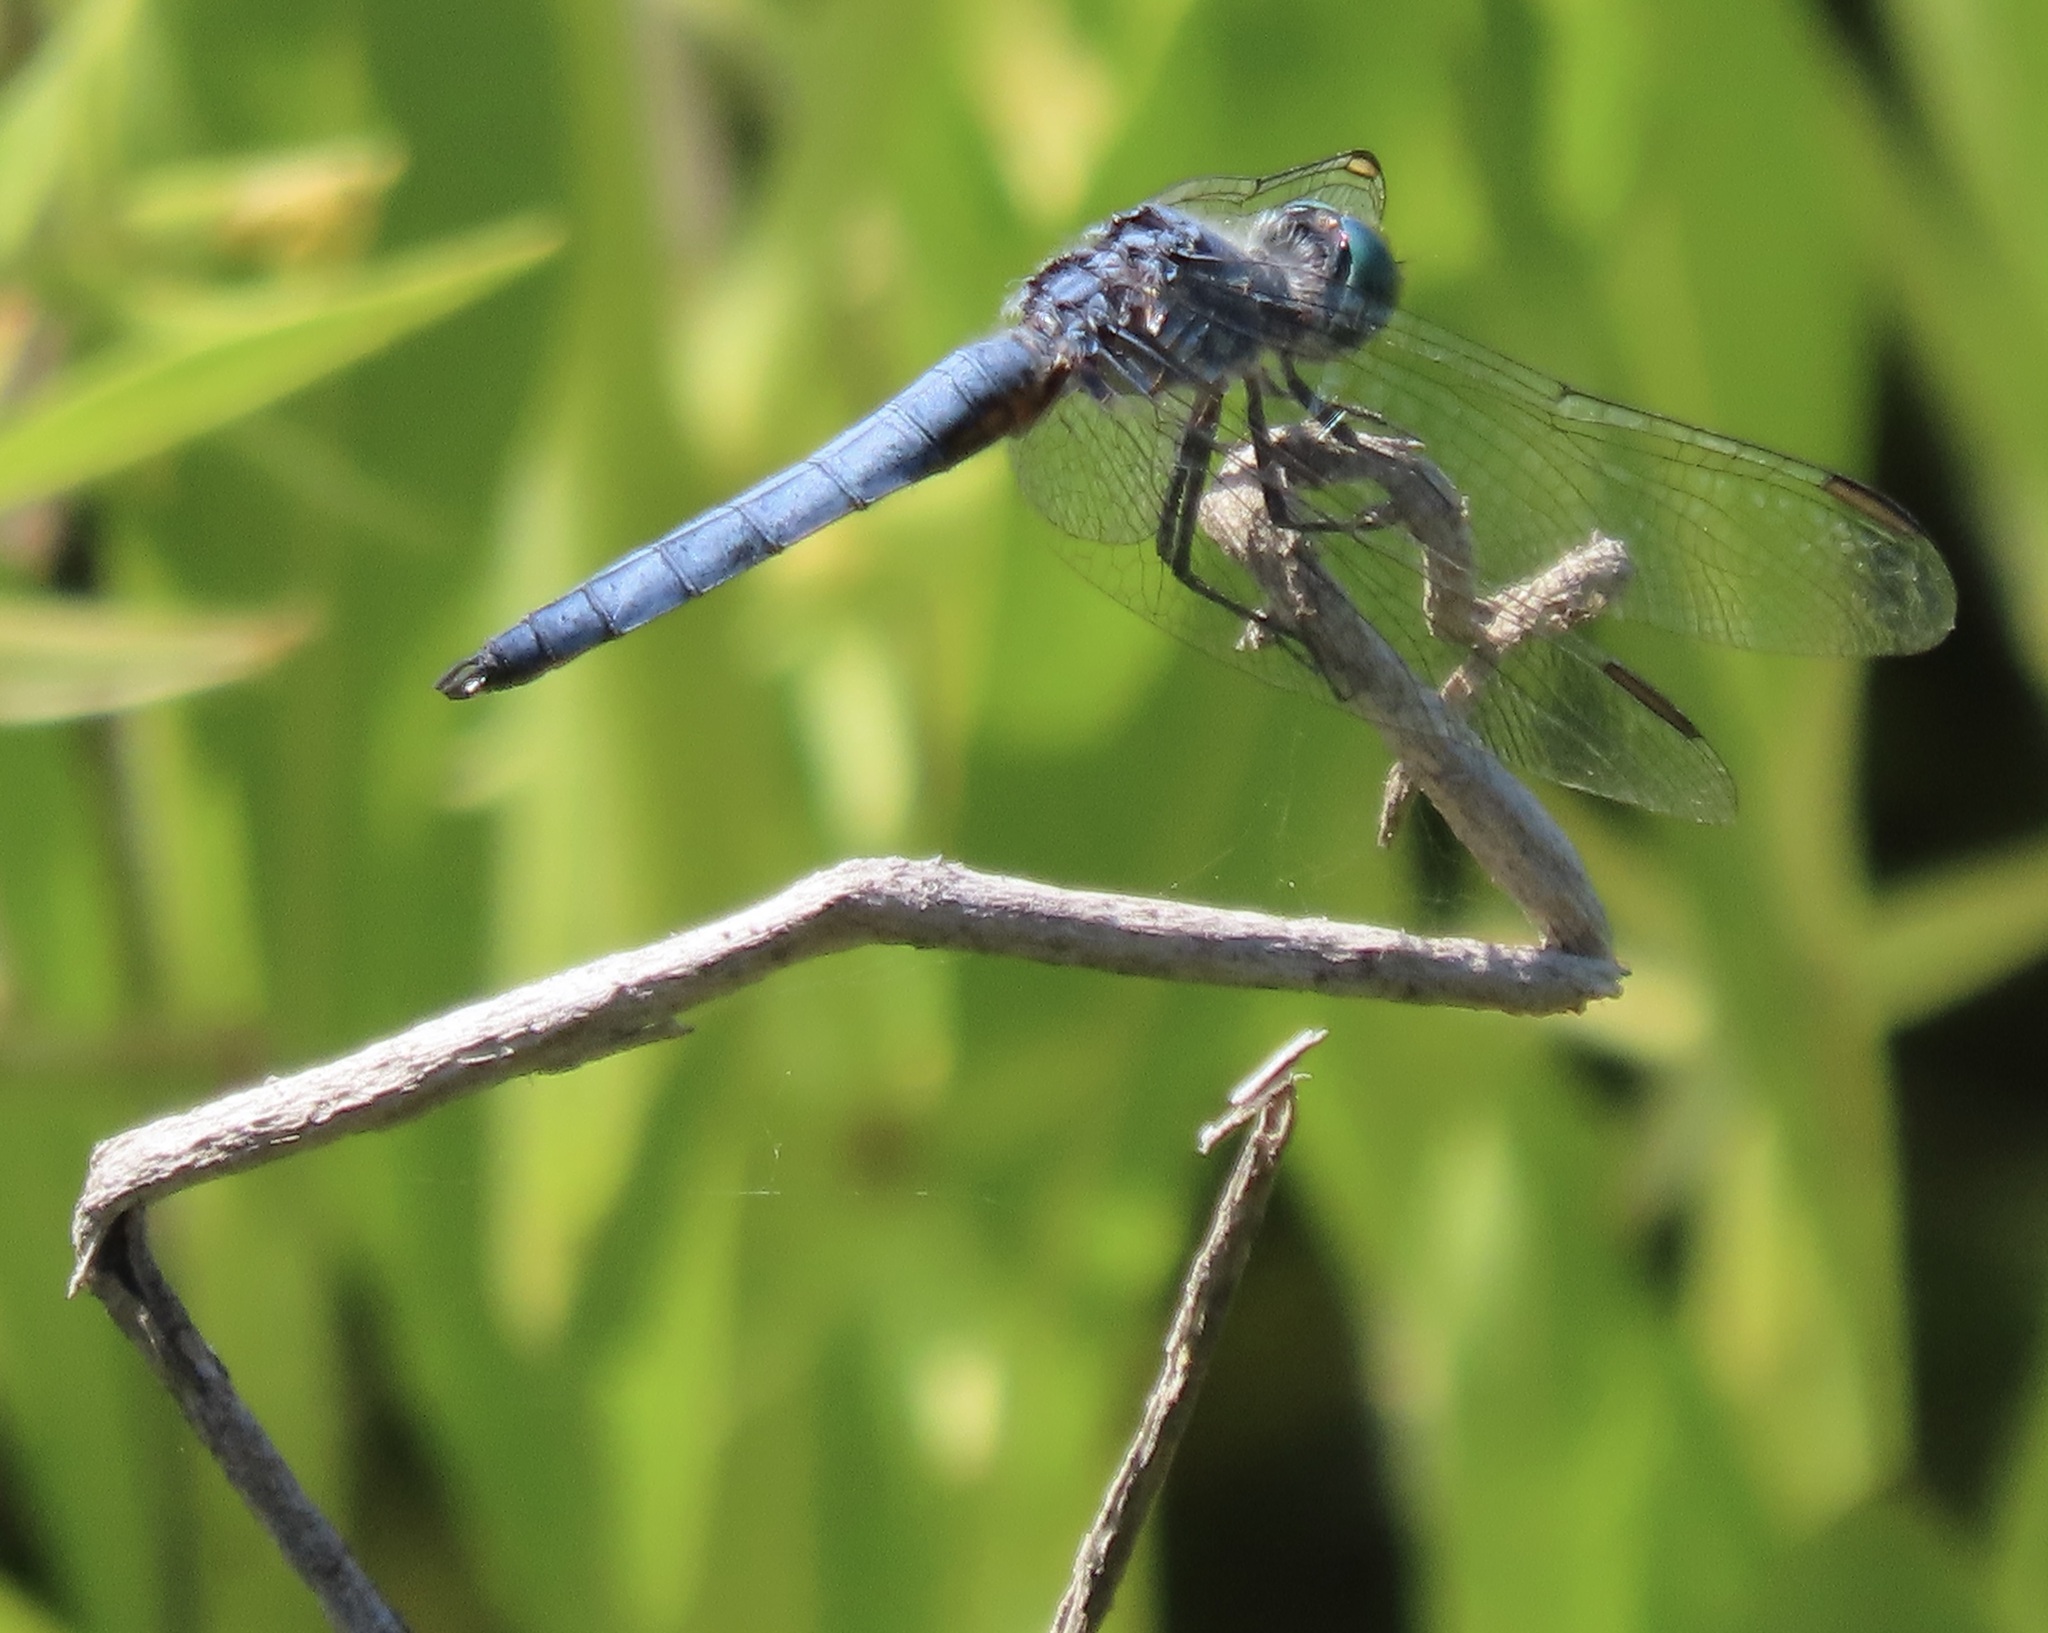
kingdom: Animalia
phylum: Arthropoda
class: Insecta
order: Odonata
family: Libellulidae
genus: Pachydiplax
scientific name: Pachydiplax longipennis
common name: Blue dasher
